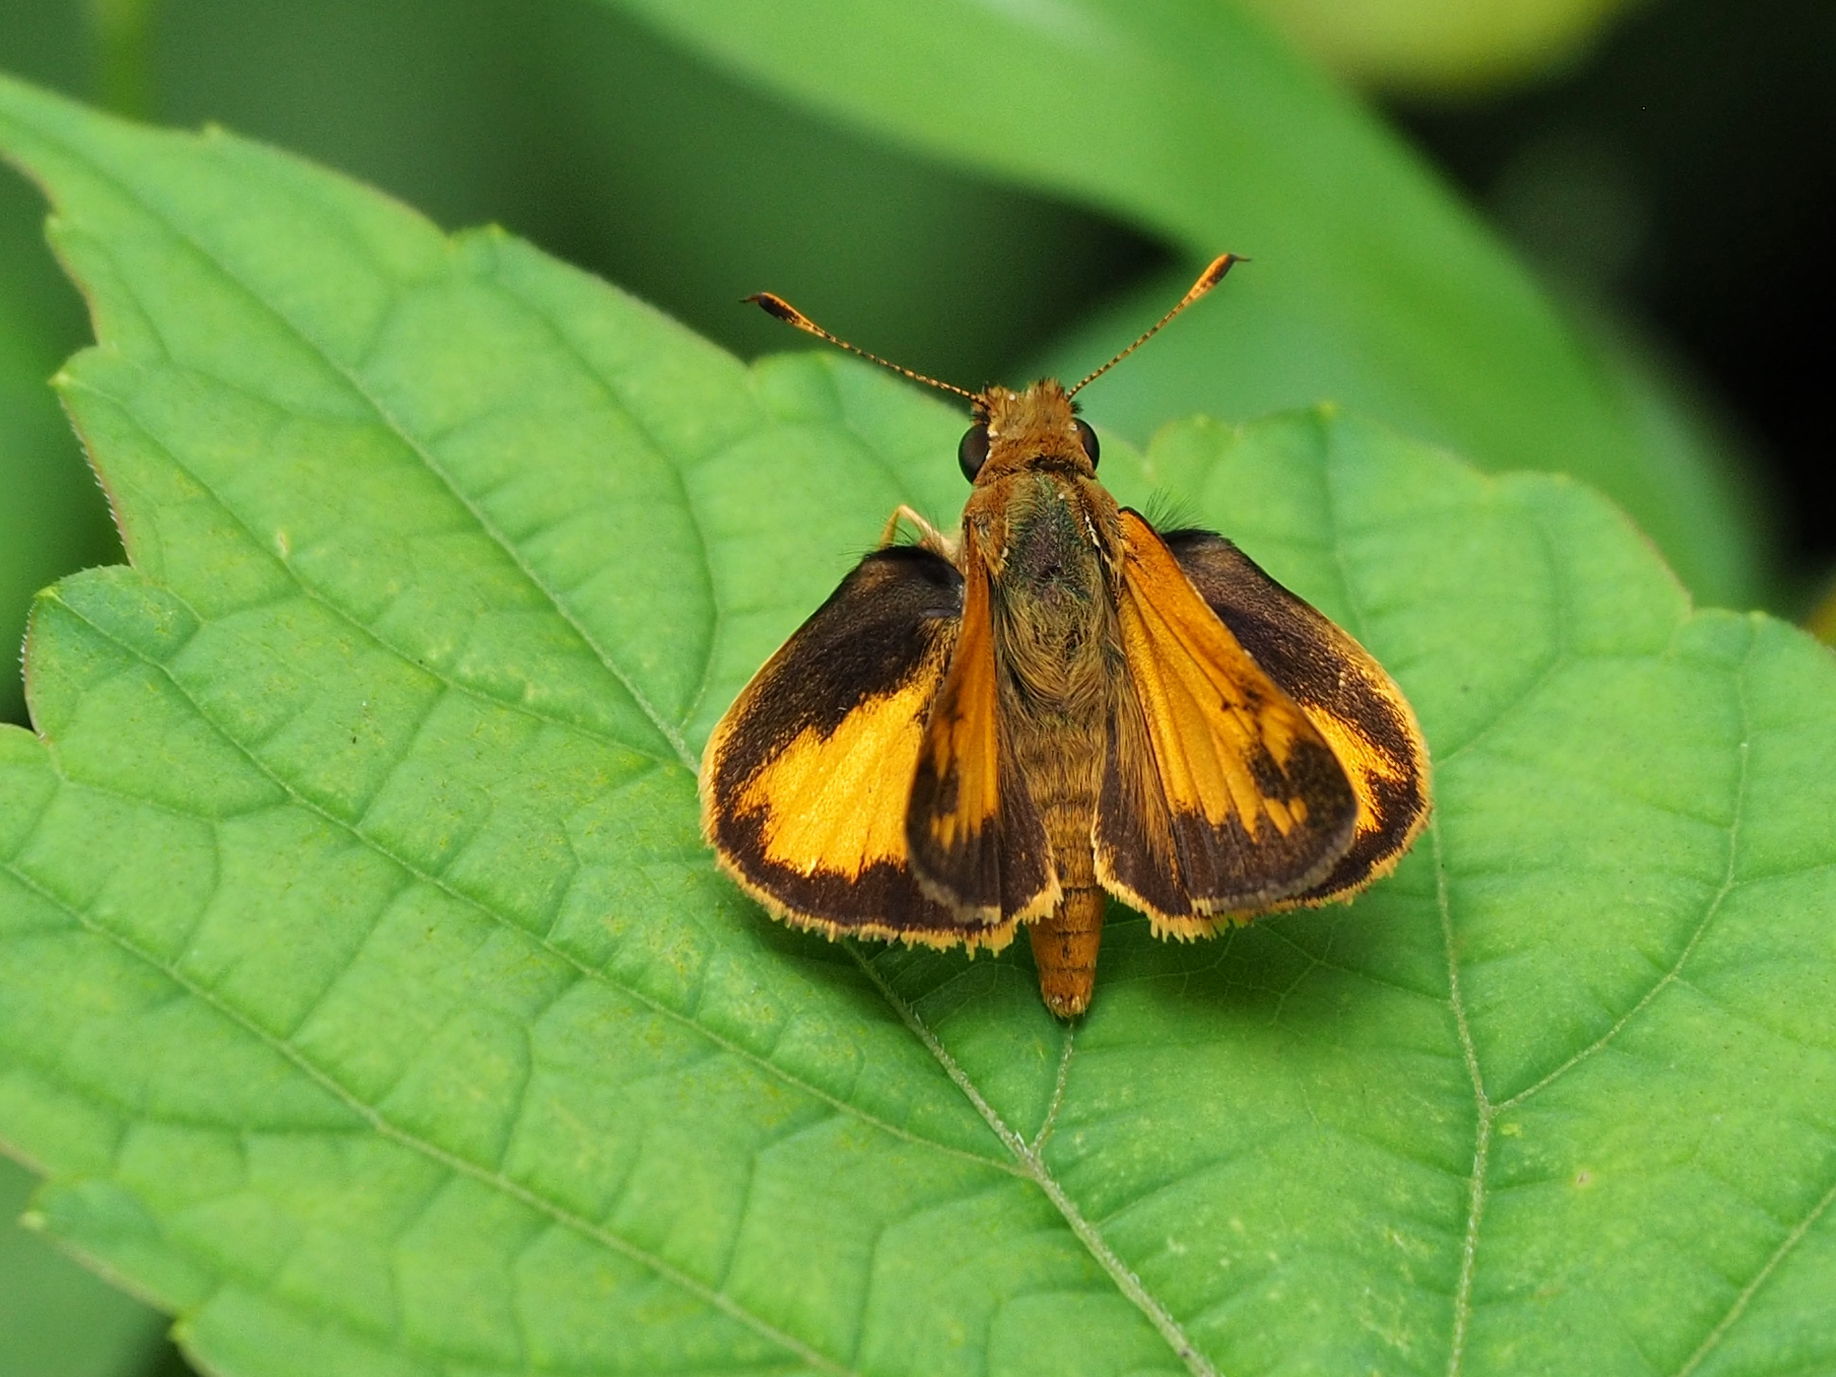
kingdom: Animalia
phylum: Arthropoda
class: Insecta
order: Lepidoptera
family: Hesperiidae
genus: Lon
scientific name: Lon zabulon
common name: Zabulon skipper
